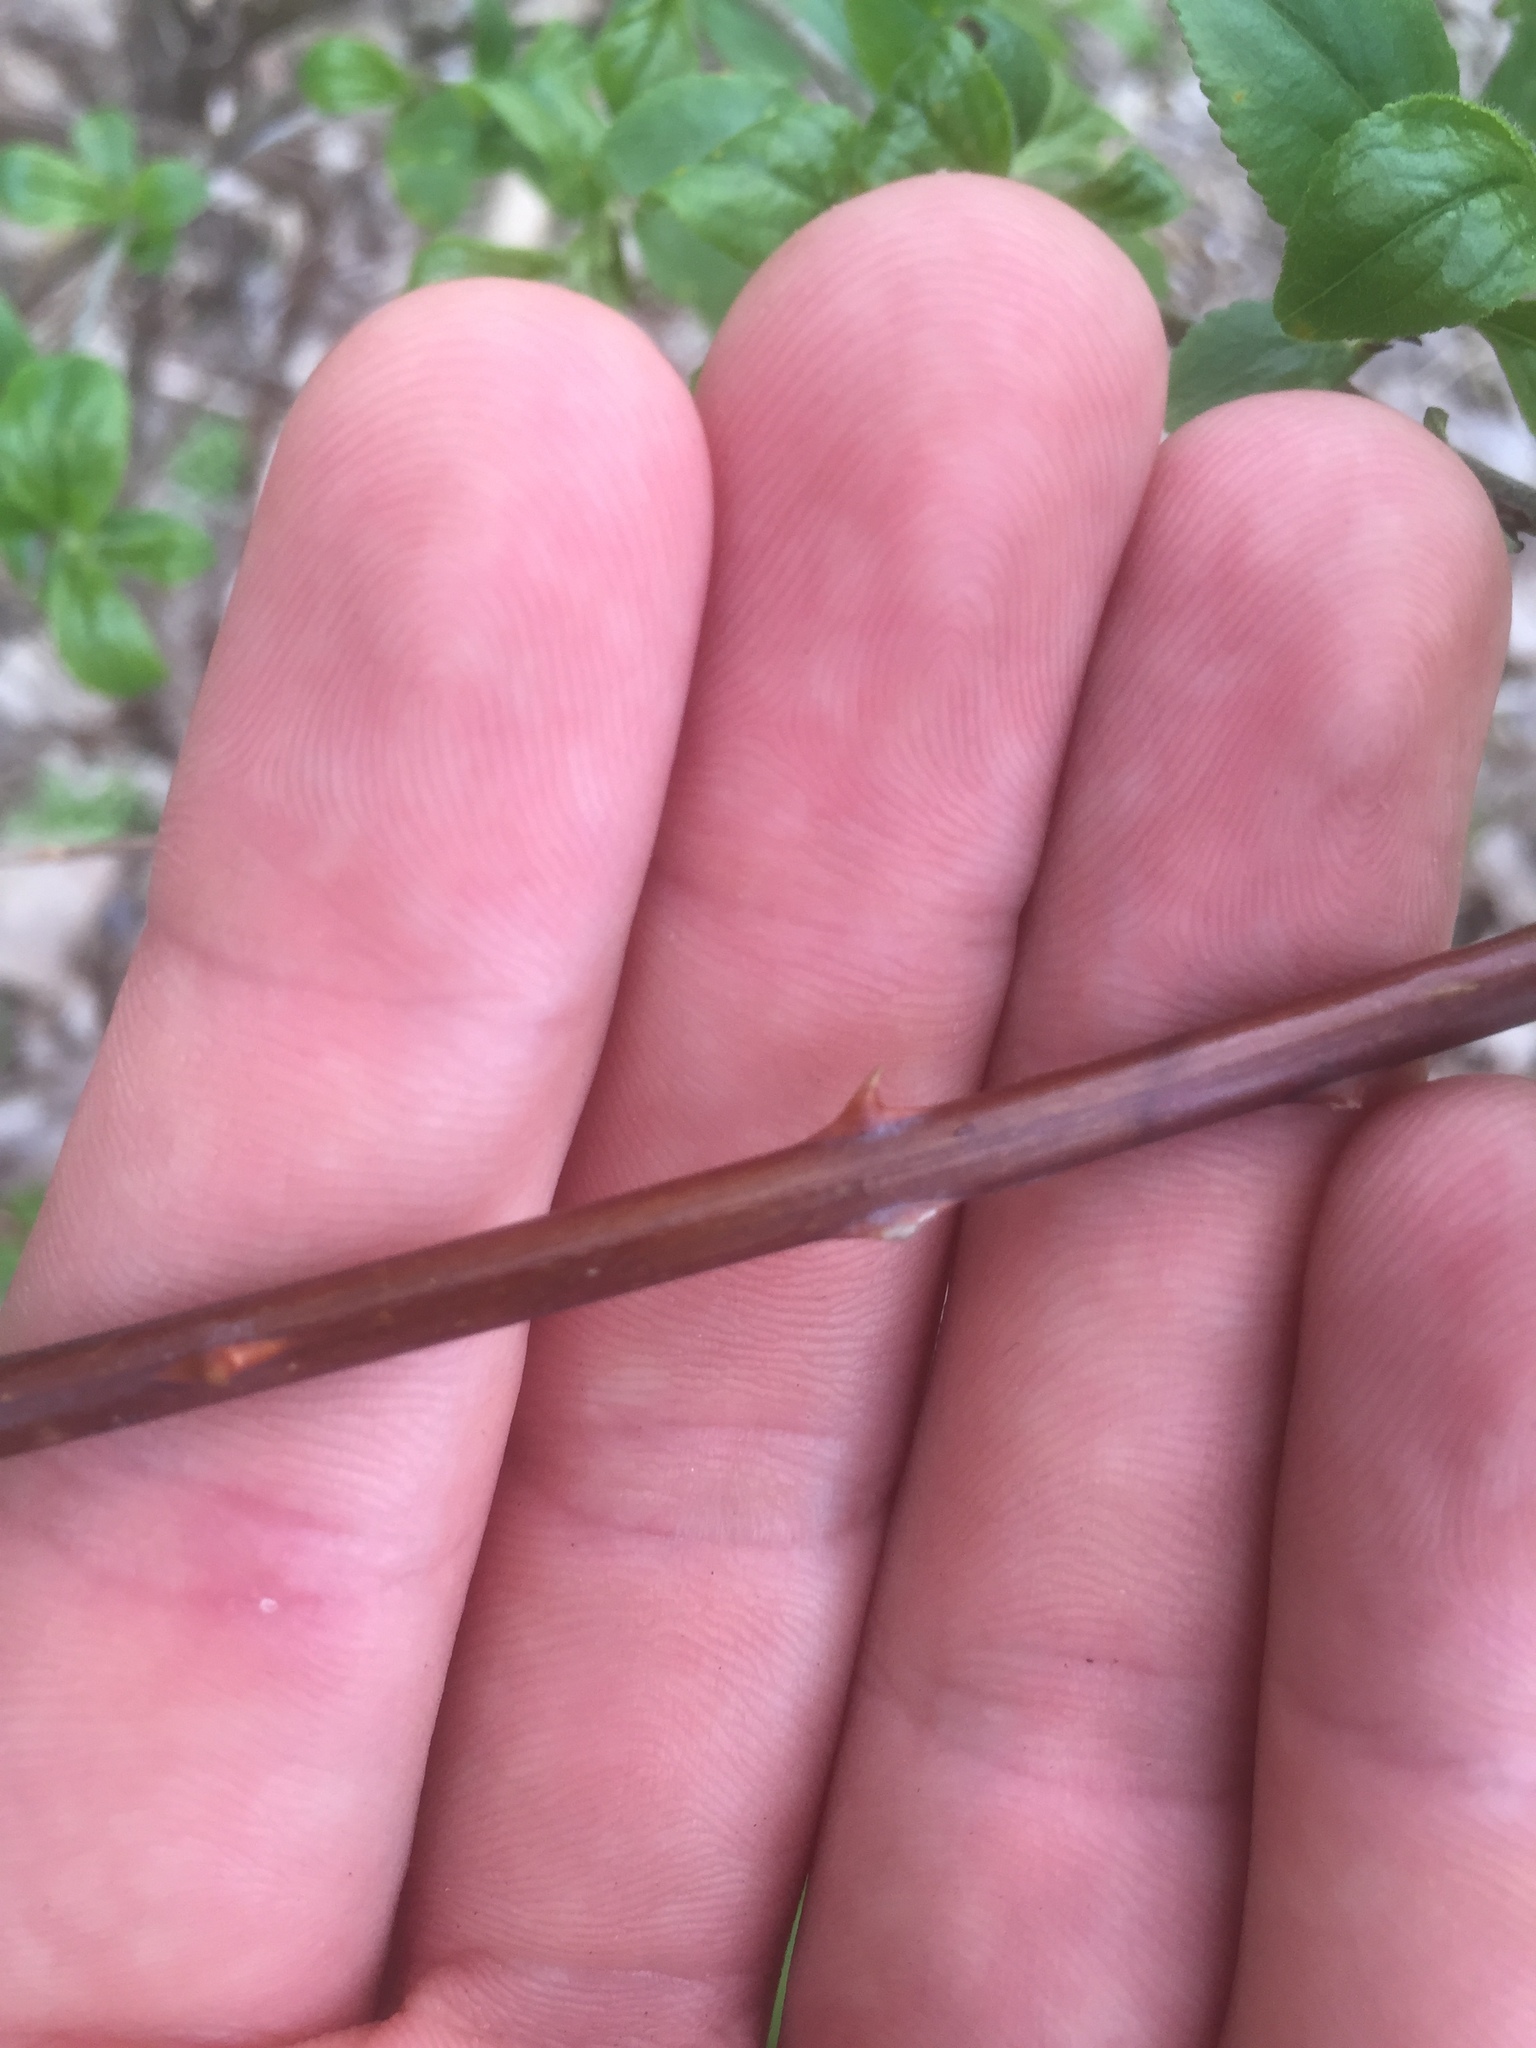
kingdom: Plantae
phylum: Tracheophyta
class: Magnoliopsida
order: Rosales
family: Rosaceae
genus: Rubus
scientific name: Rubus occidentalis
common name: Black raspberry
